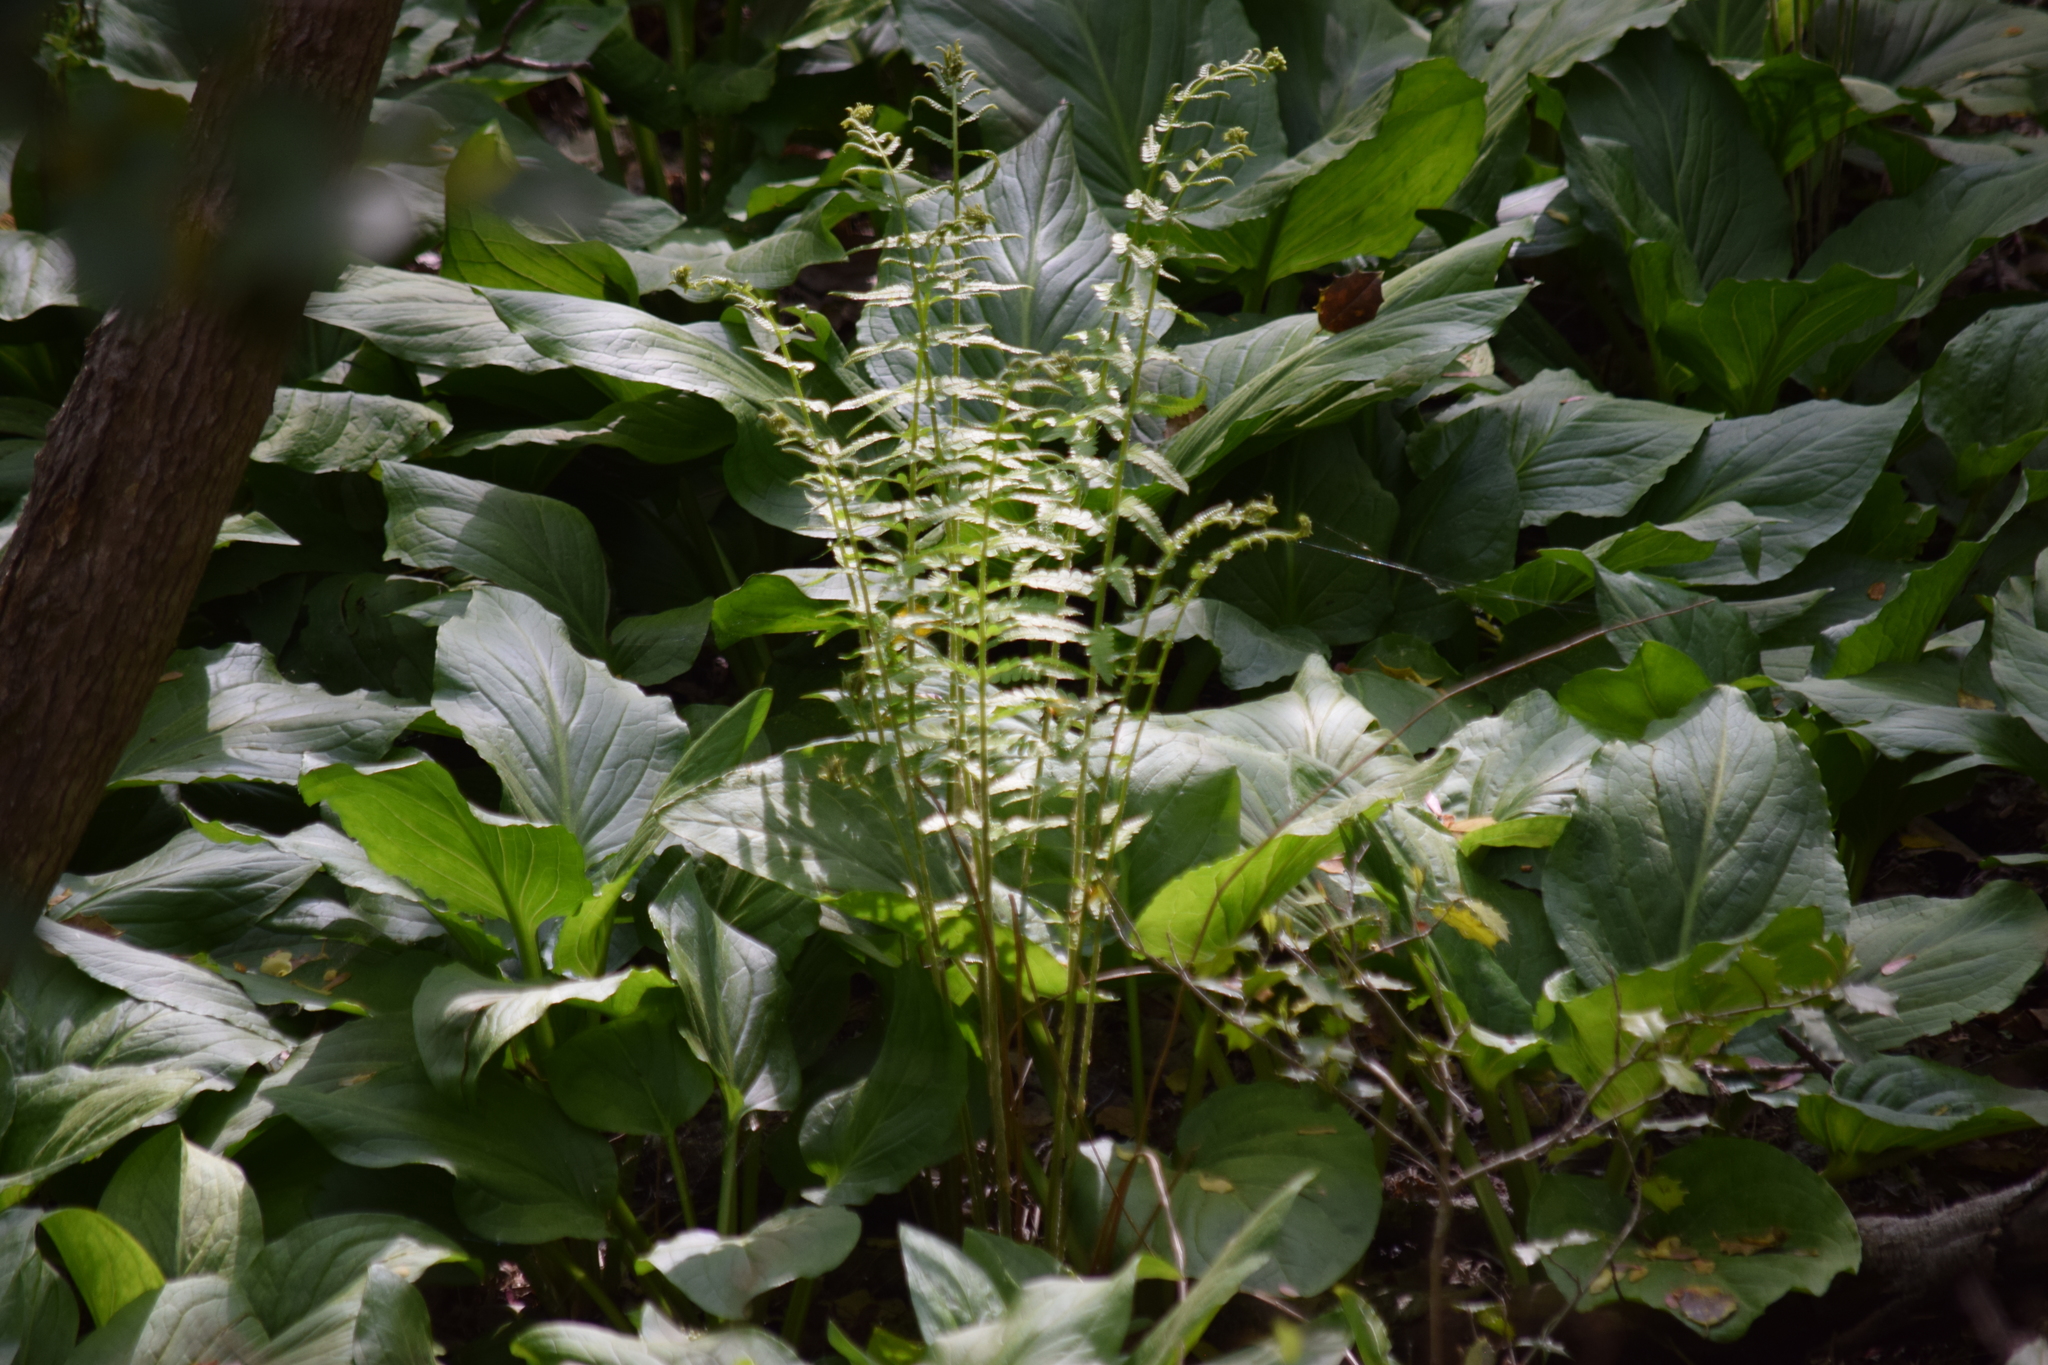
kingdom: Plantae
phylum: Tracheophyta
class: Polypodiopsida
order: Osmundales
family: Osmundaceae
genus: Osmundastrum
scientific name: Osmundastrum cinnamomeum
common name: Cinnamon fern
